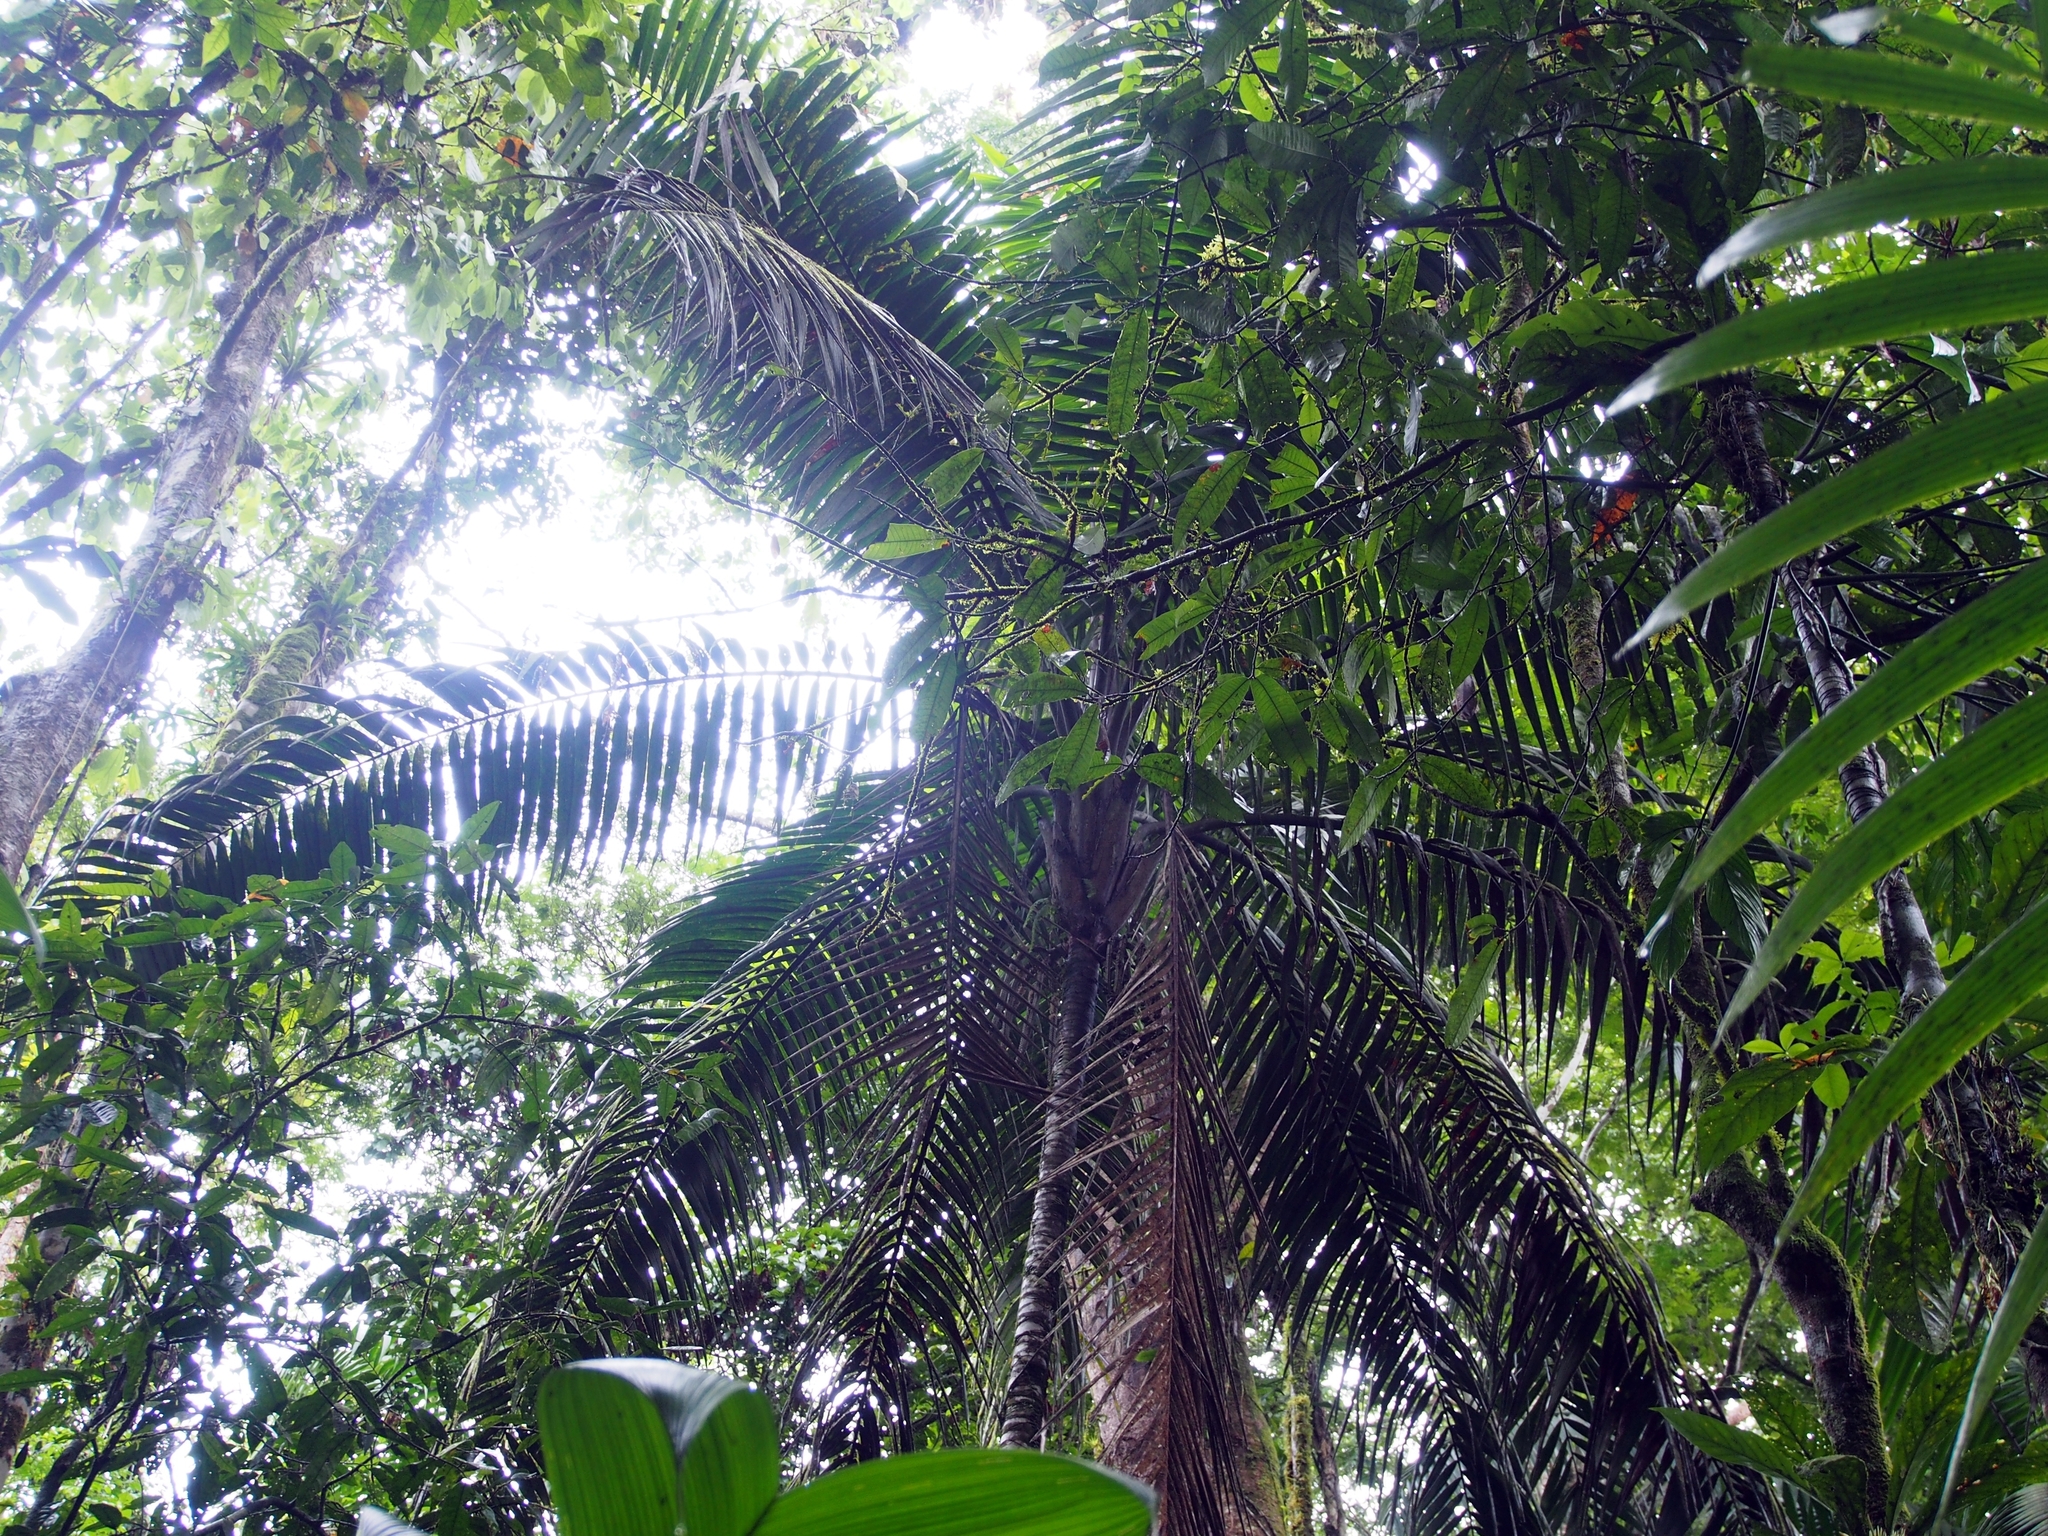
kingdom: Plantae
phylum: Tracheophyta
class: Liliopsida
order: Arecales
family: Arecaceae
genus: Welfia
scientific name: Welfia regia
